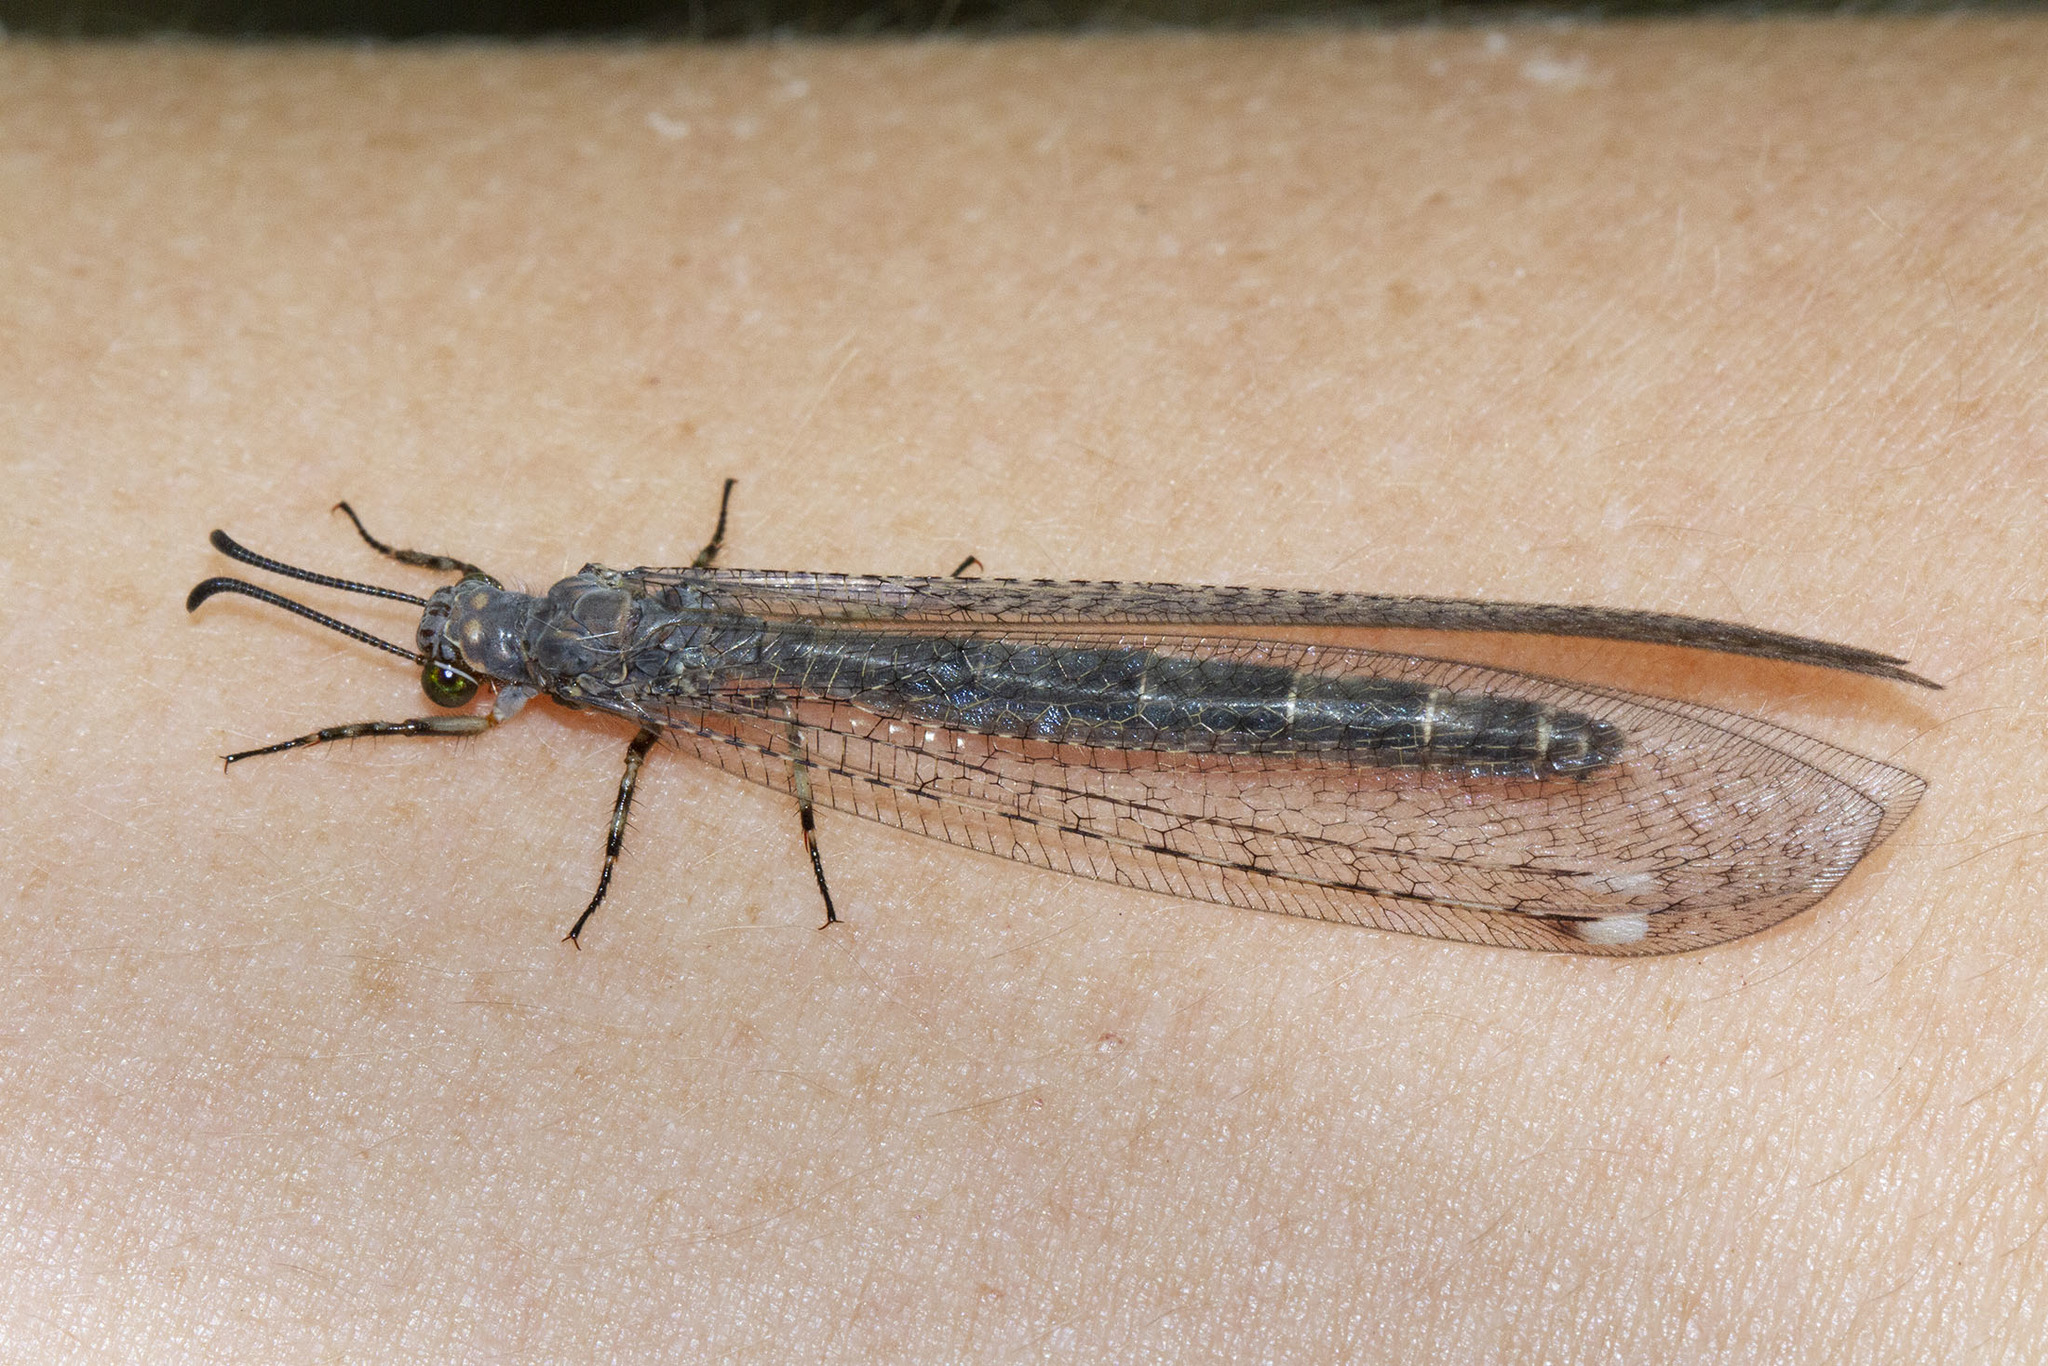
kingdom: Animalia
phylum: Arthropoda
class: Insecta
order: Neuroptera
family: Myrmeleontidae
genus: Myrmeleon
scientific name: Myrmeleon immaculatus
